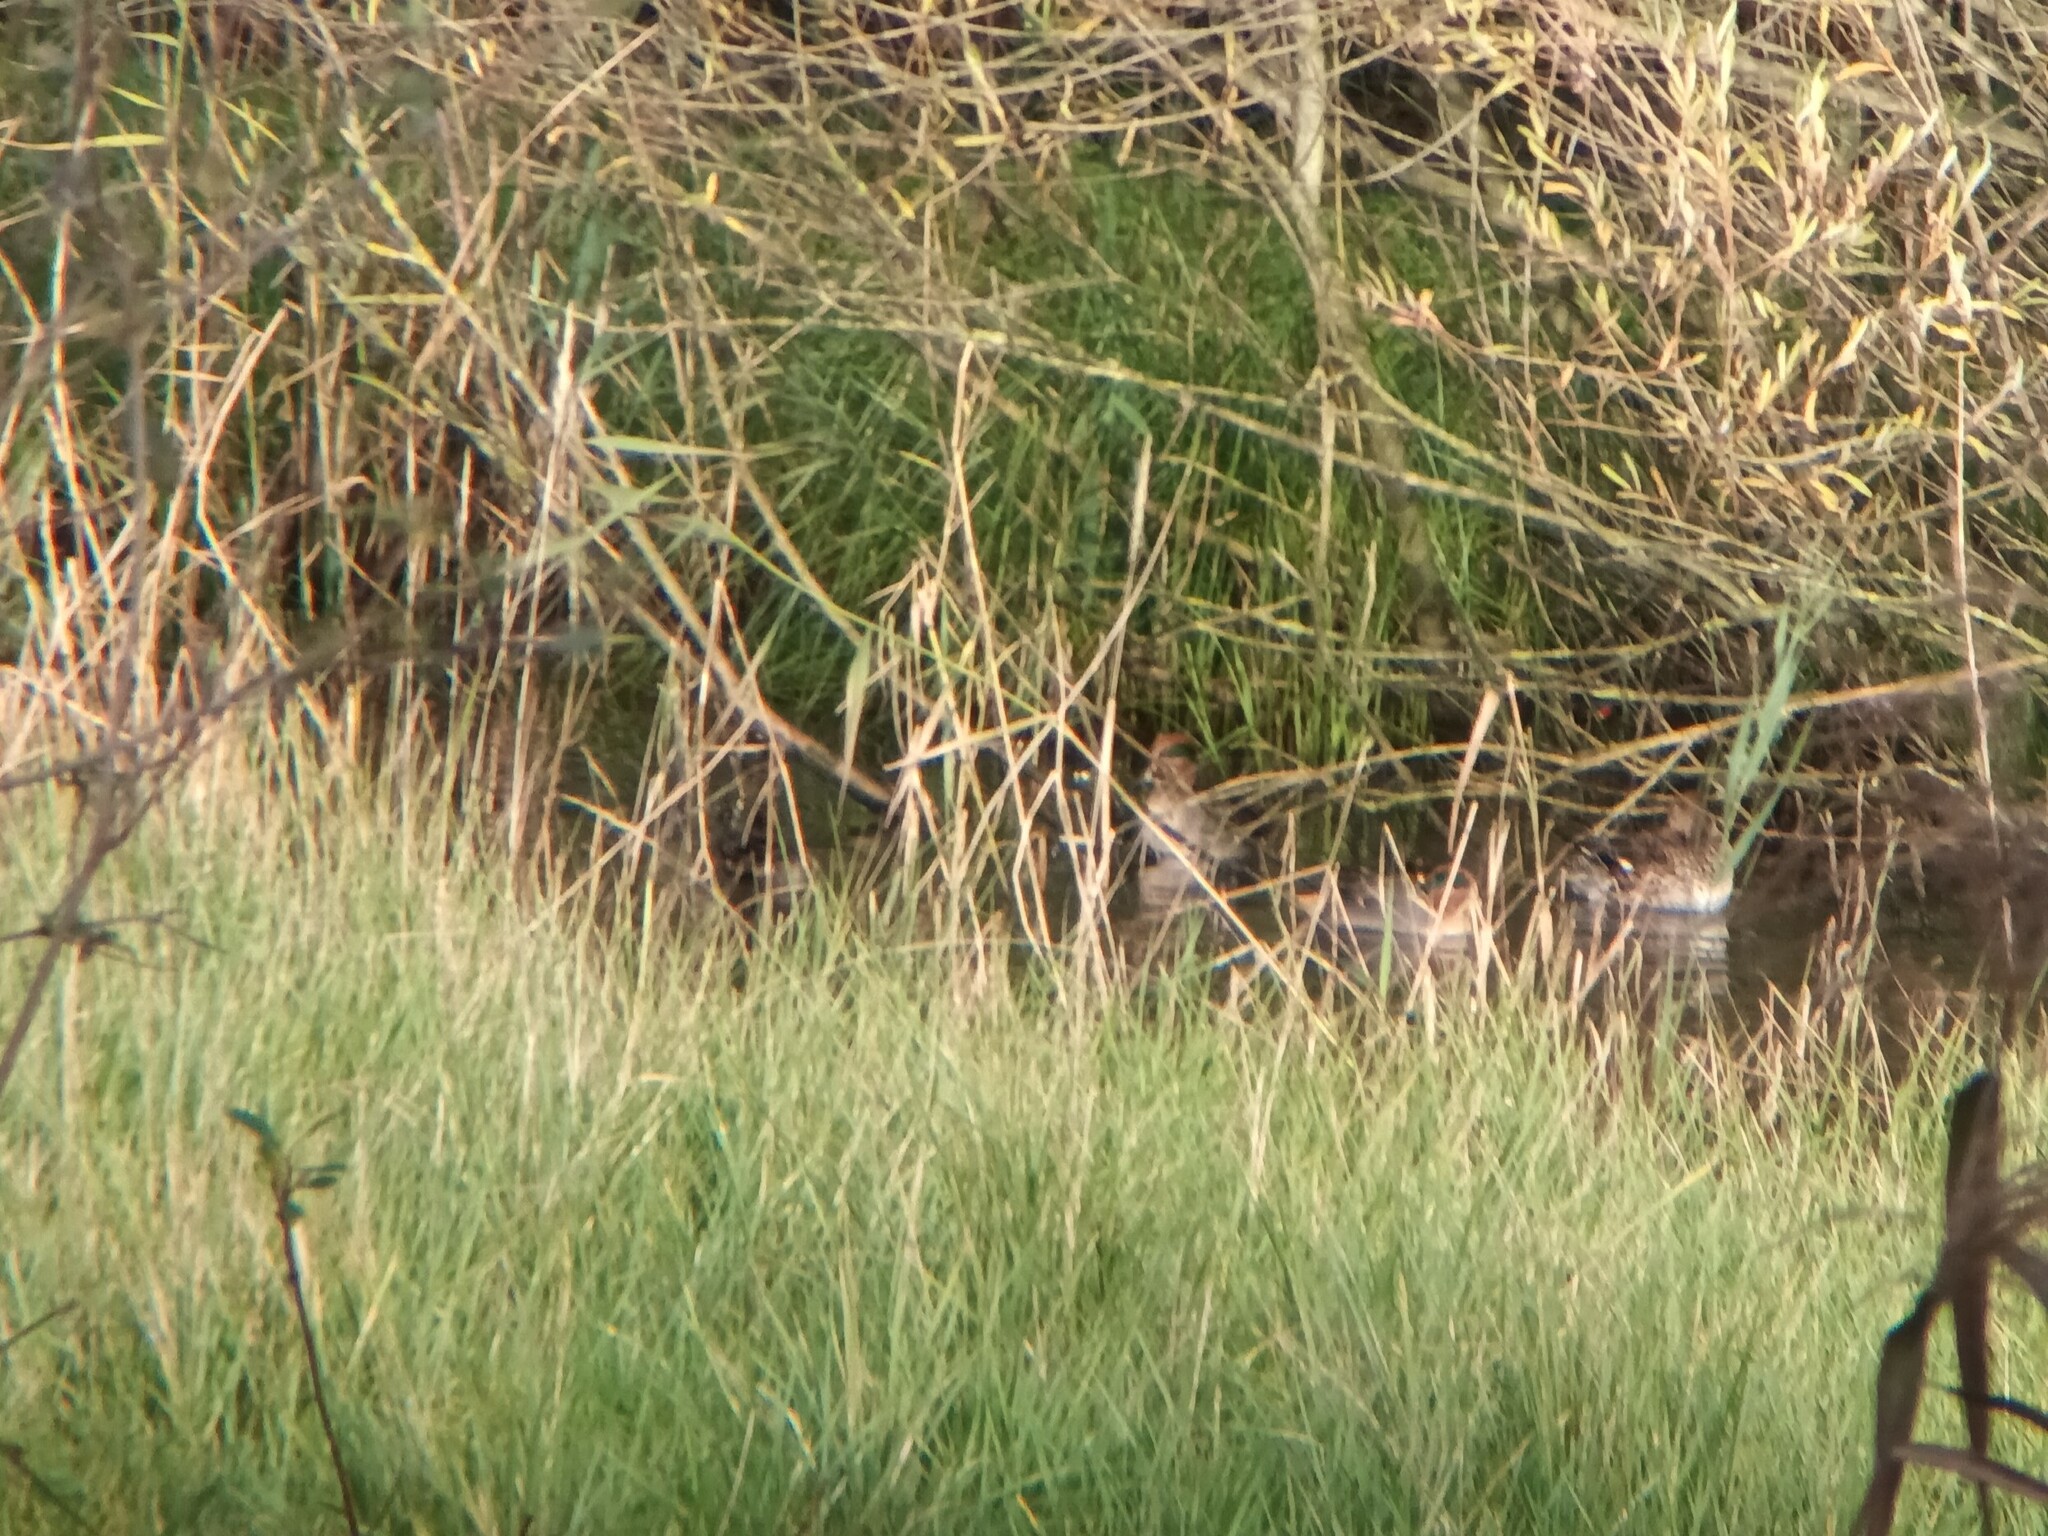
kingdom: Animalia
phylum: Chordata
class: Aves
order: Anseriformes
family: Anatidae
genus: Anas
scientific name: Anas crecca
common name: Eurasian teal
